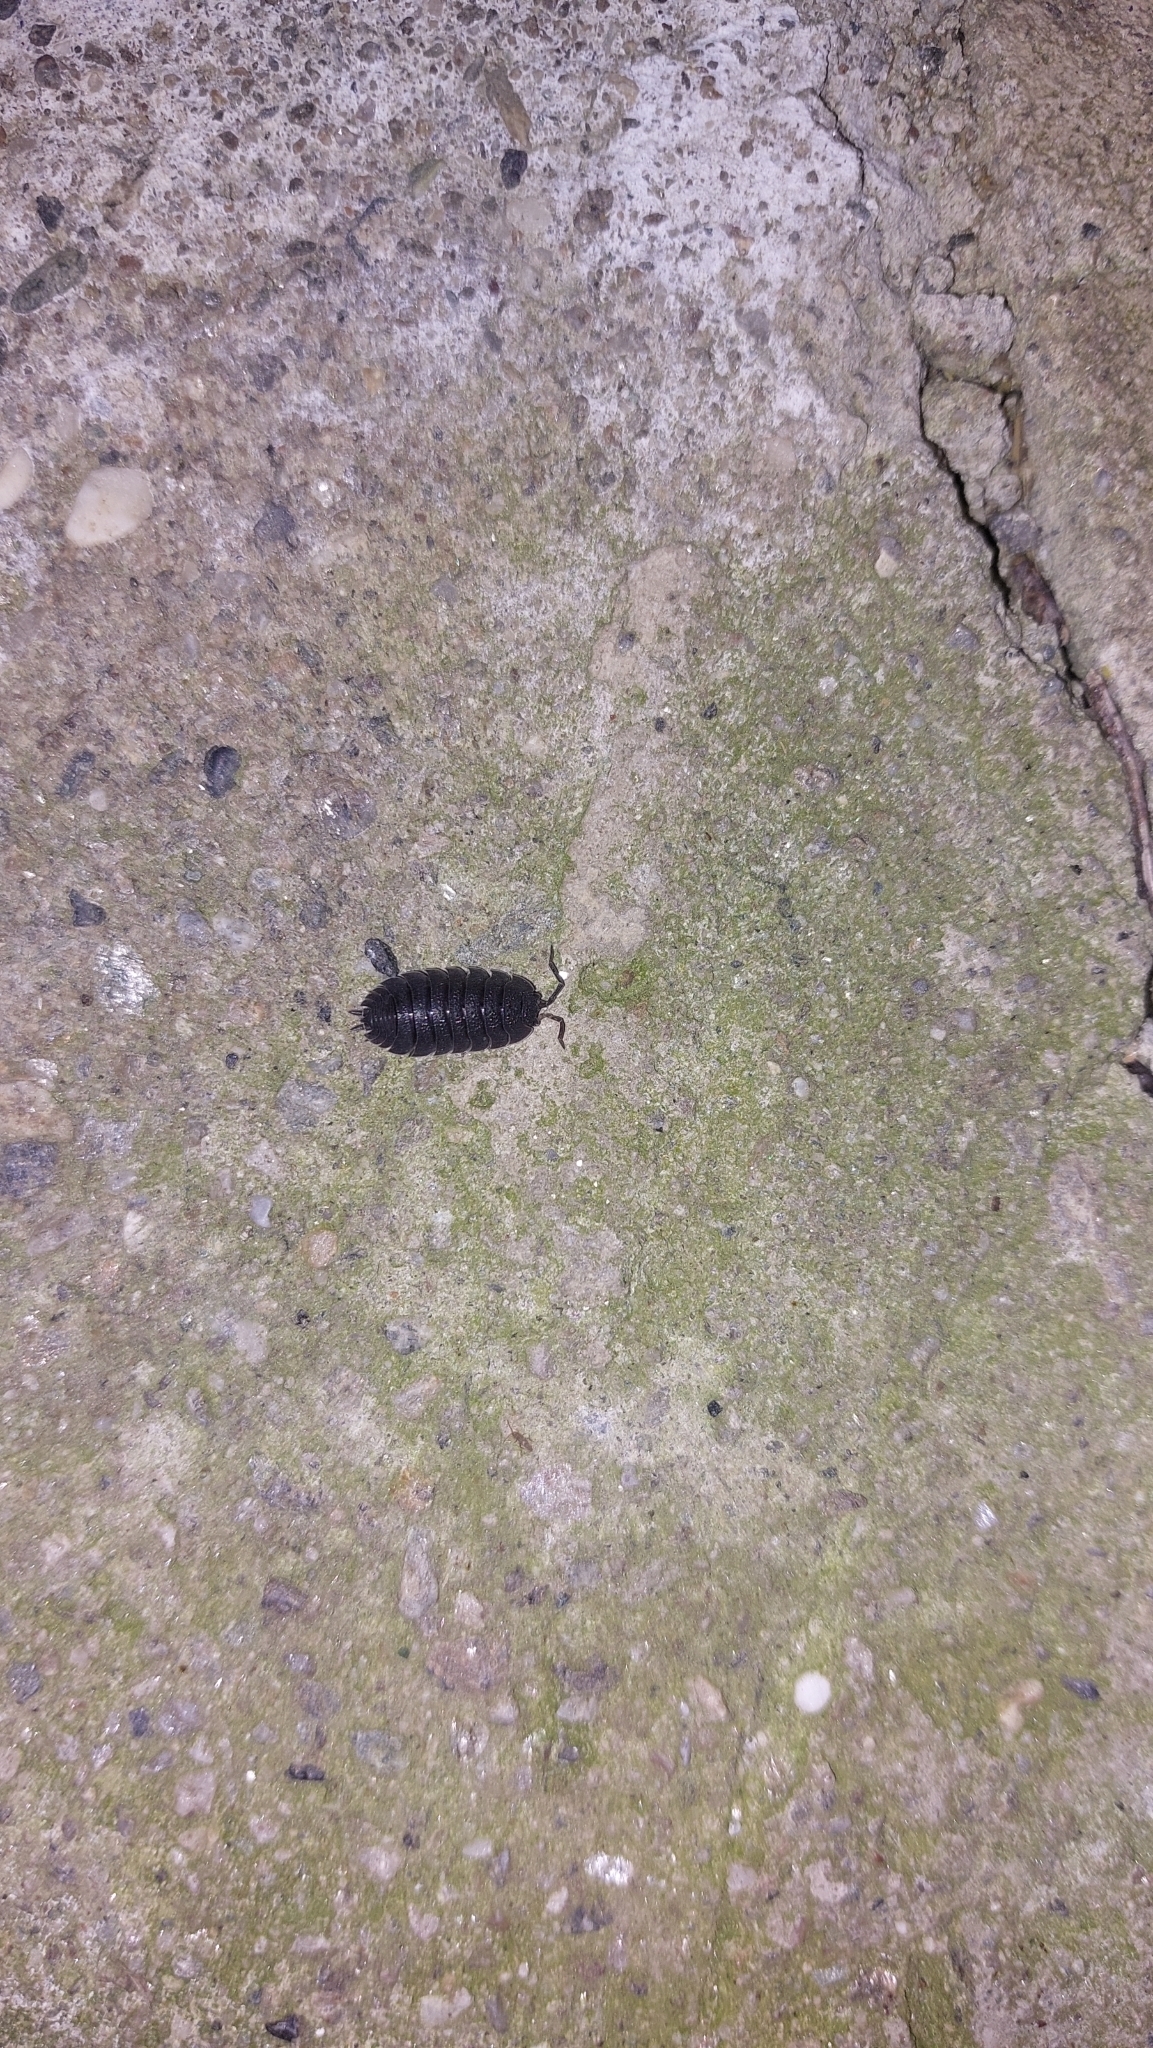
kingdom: Animalia
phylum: Arthropoda
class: Malacostraca
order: Isopoda
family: Porcellionidae
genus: Porcellio
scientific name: Porcellio scaber
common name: Common rough woodlouse
